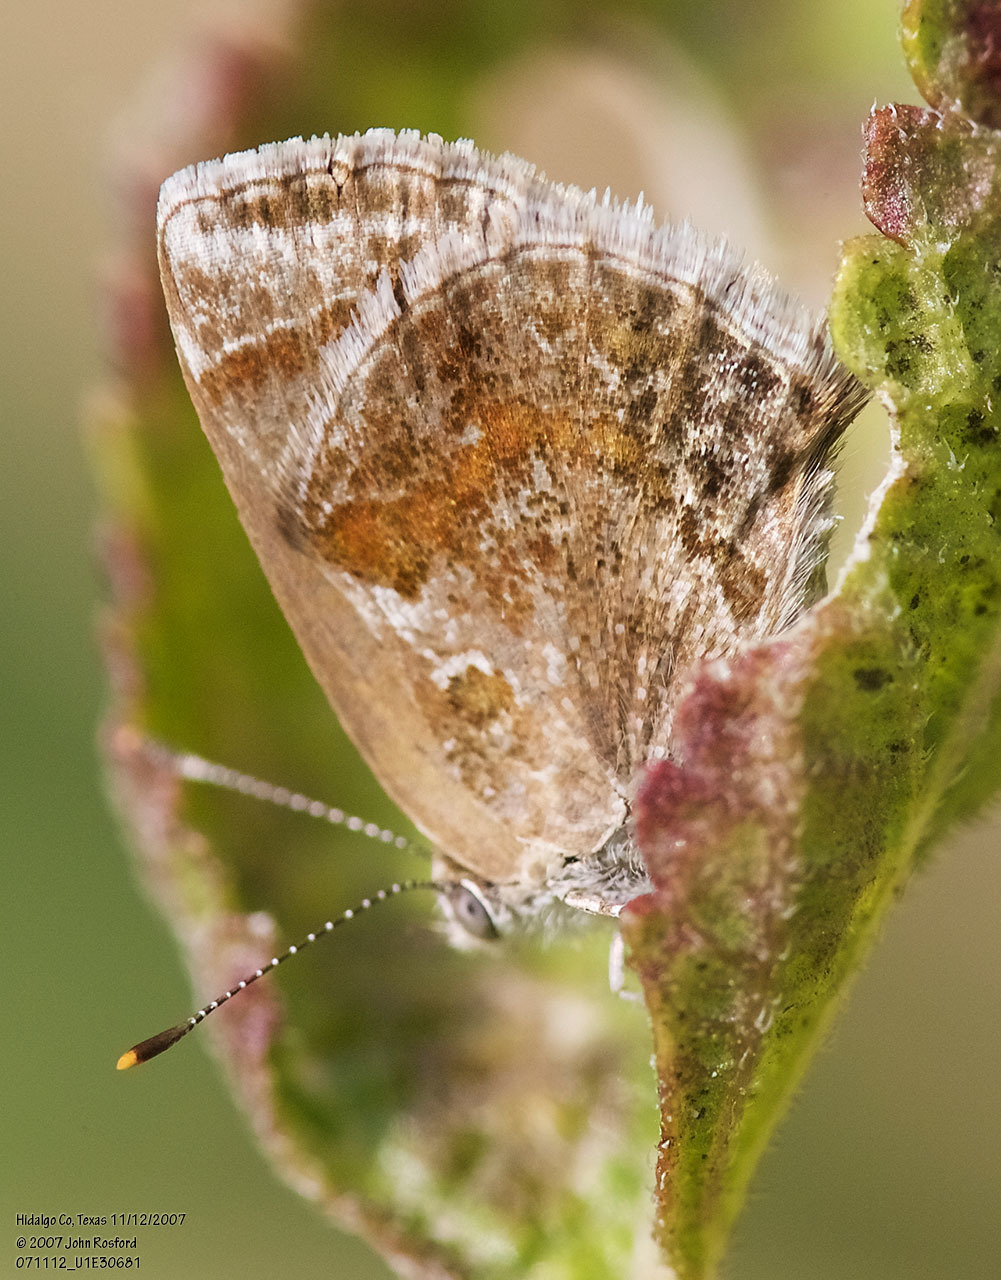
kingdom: Animalia
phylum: Arthropoda
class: Insecta
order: Lepidoptera
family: Lycaenidae
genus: Strymon
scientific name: Strymon bazochii
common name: Lantana scrub-hairstreak
